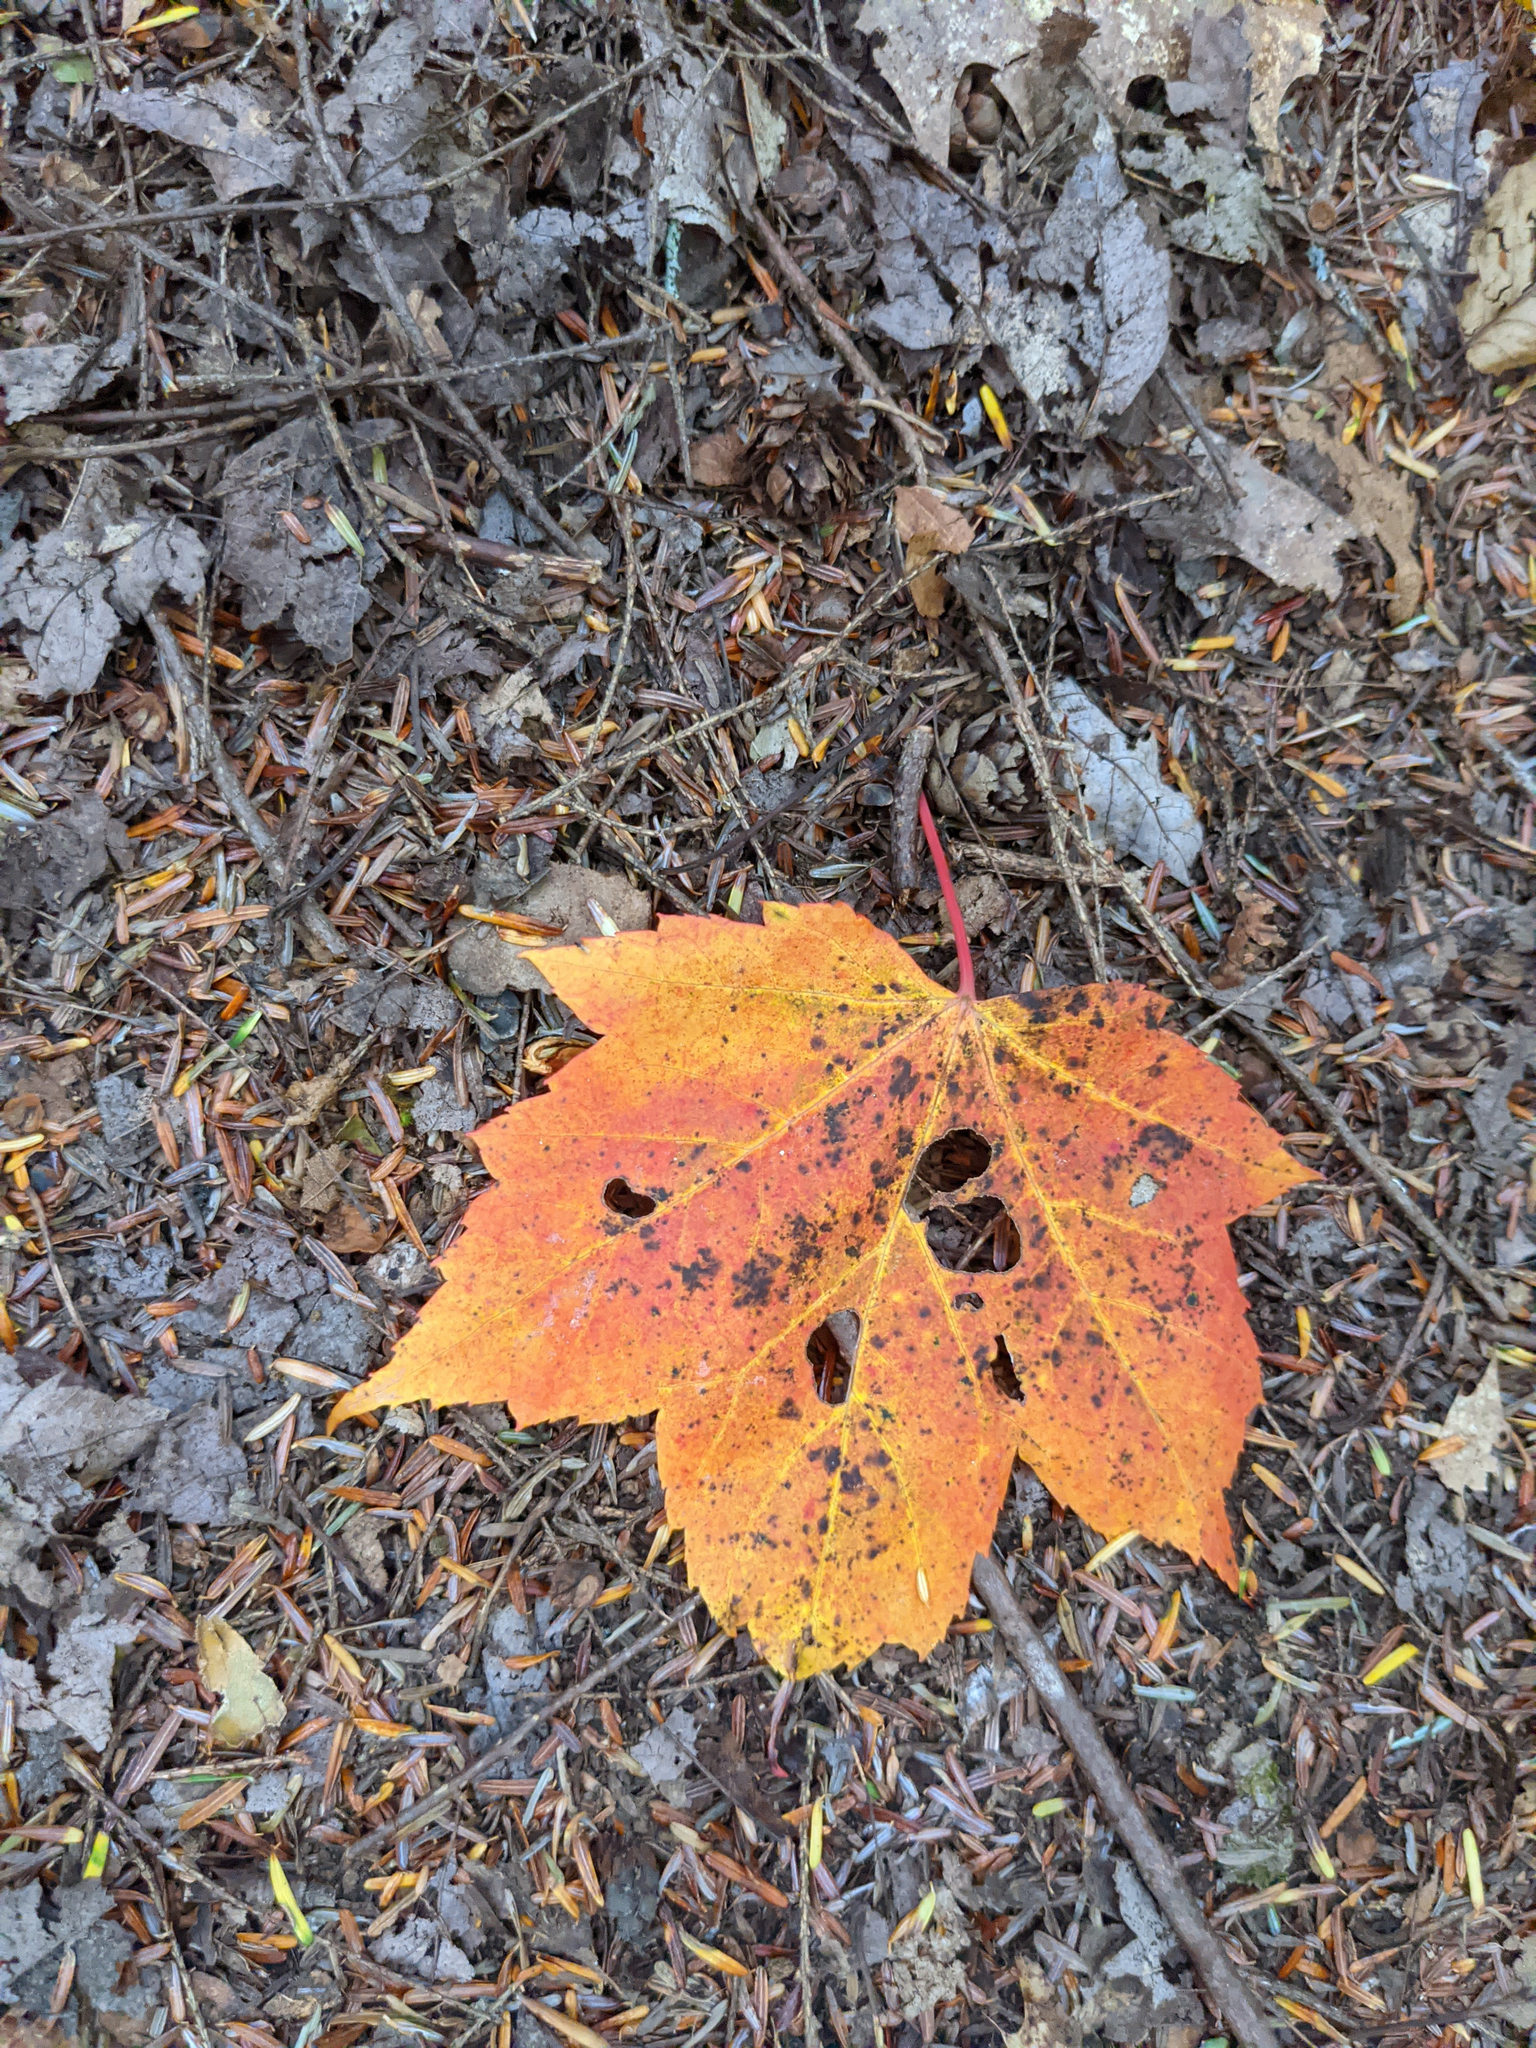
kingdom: Plantae
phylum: Tracheophyta
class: Magnoliopsida
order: Sapindales
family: Sapindaceae
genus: Acer
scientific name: Acer rubrum
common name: Red maple
